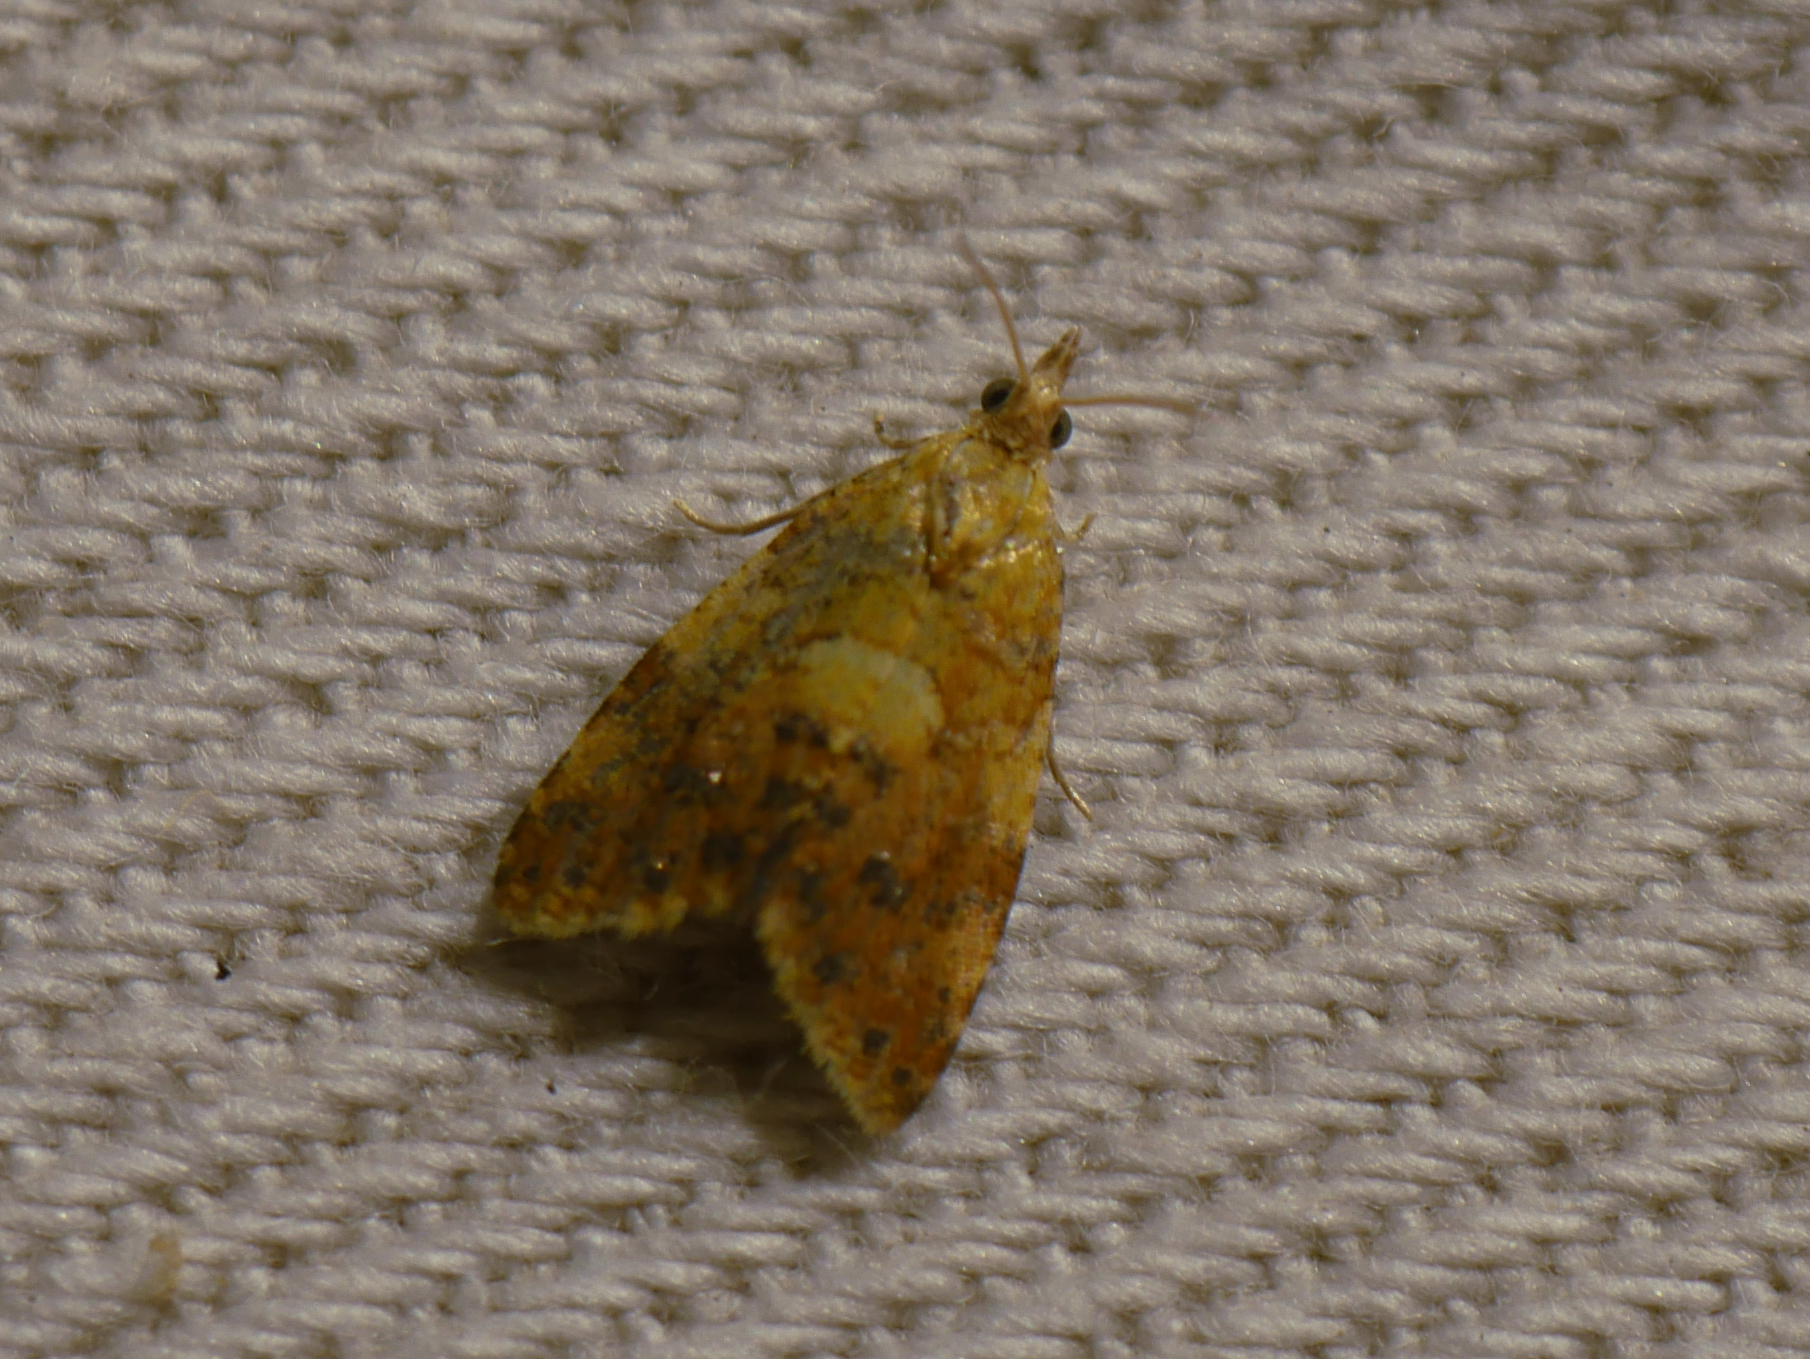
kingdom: Animalia
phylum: Arthropoda
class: Insecta
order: Lepidoptera
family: Tortricidae
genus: Pseudargyrotoza
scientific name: Pseudargyrotoza conwagana
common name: Yellow-spot twist
